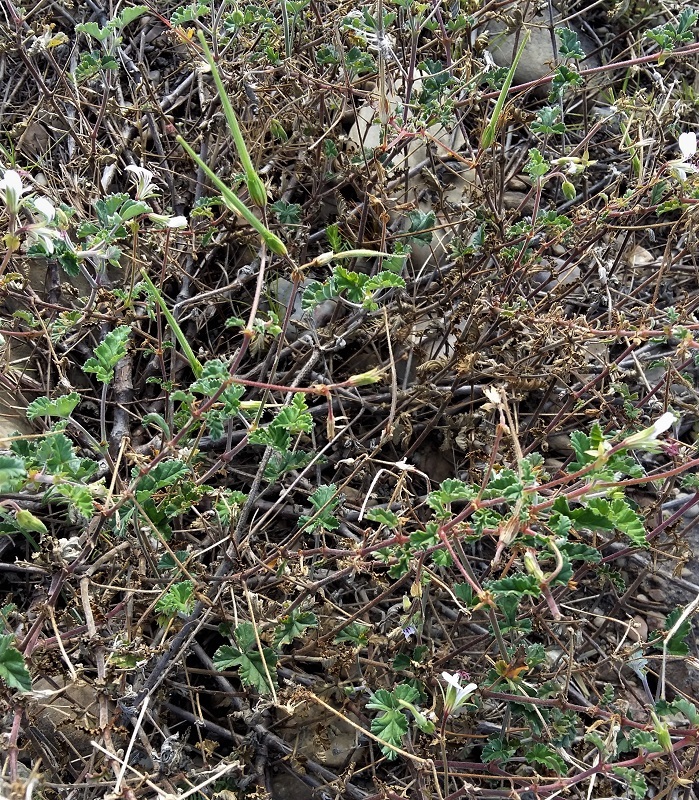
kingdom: Plantae
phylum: Tracheophyta
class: Magnoliopsida
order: Geraniales
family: Geraniaceae
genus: Pelargonium
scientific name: Pelargonium candicans
